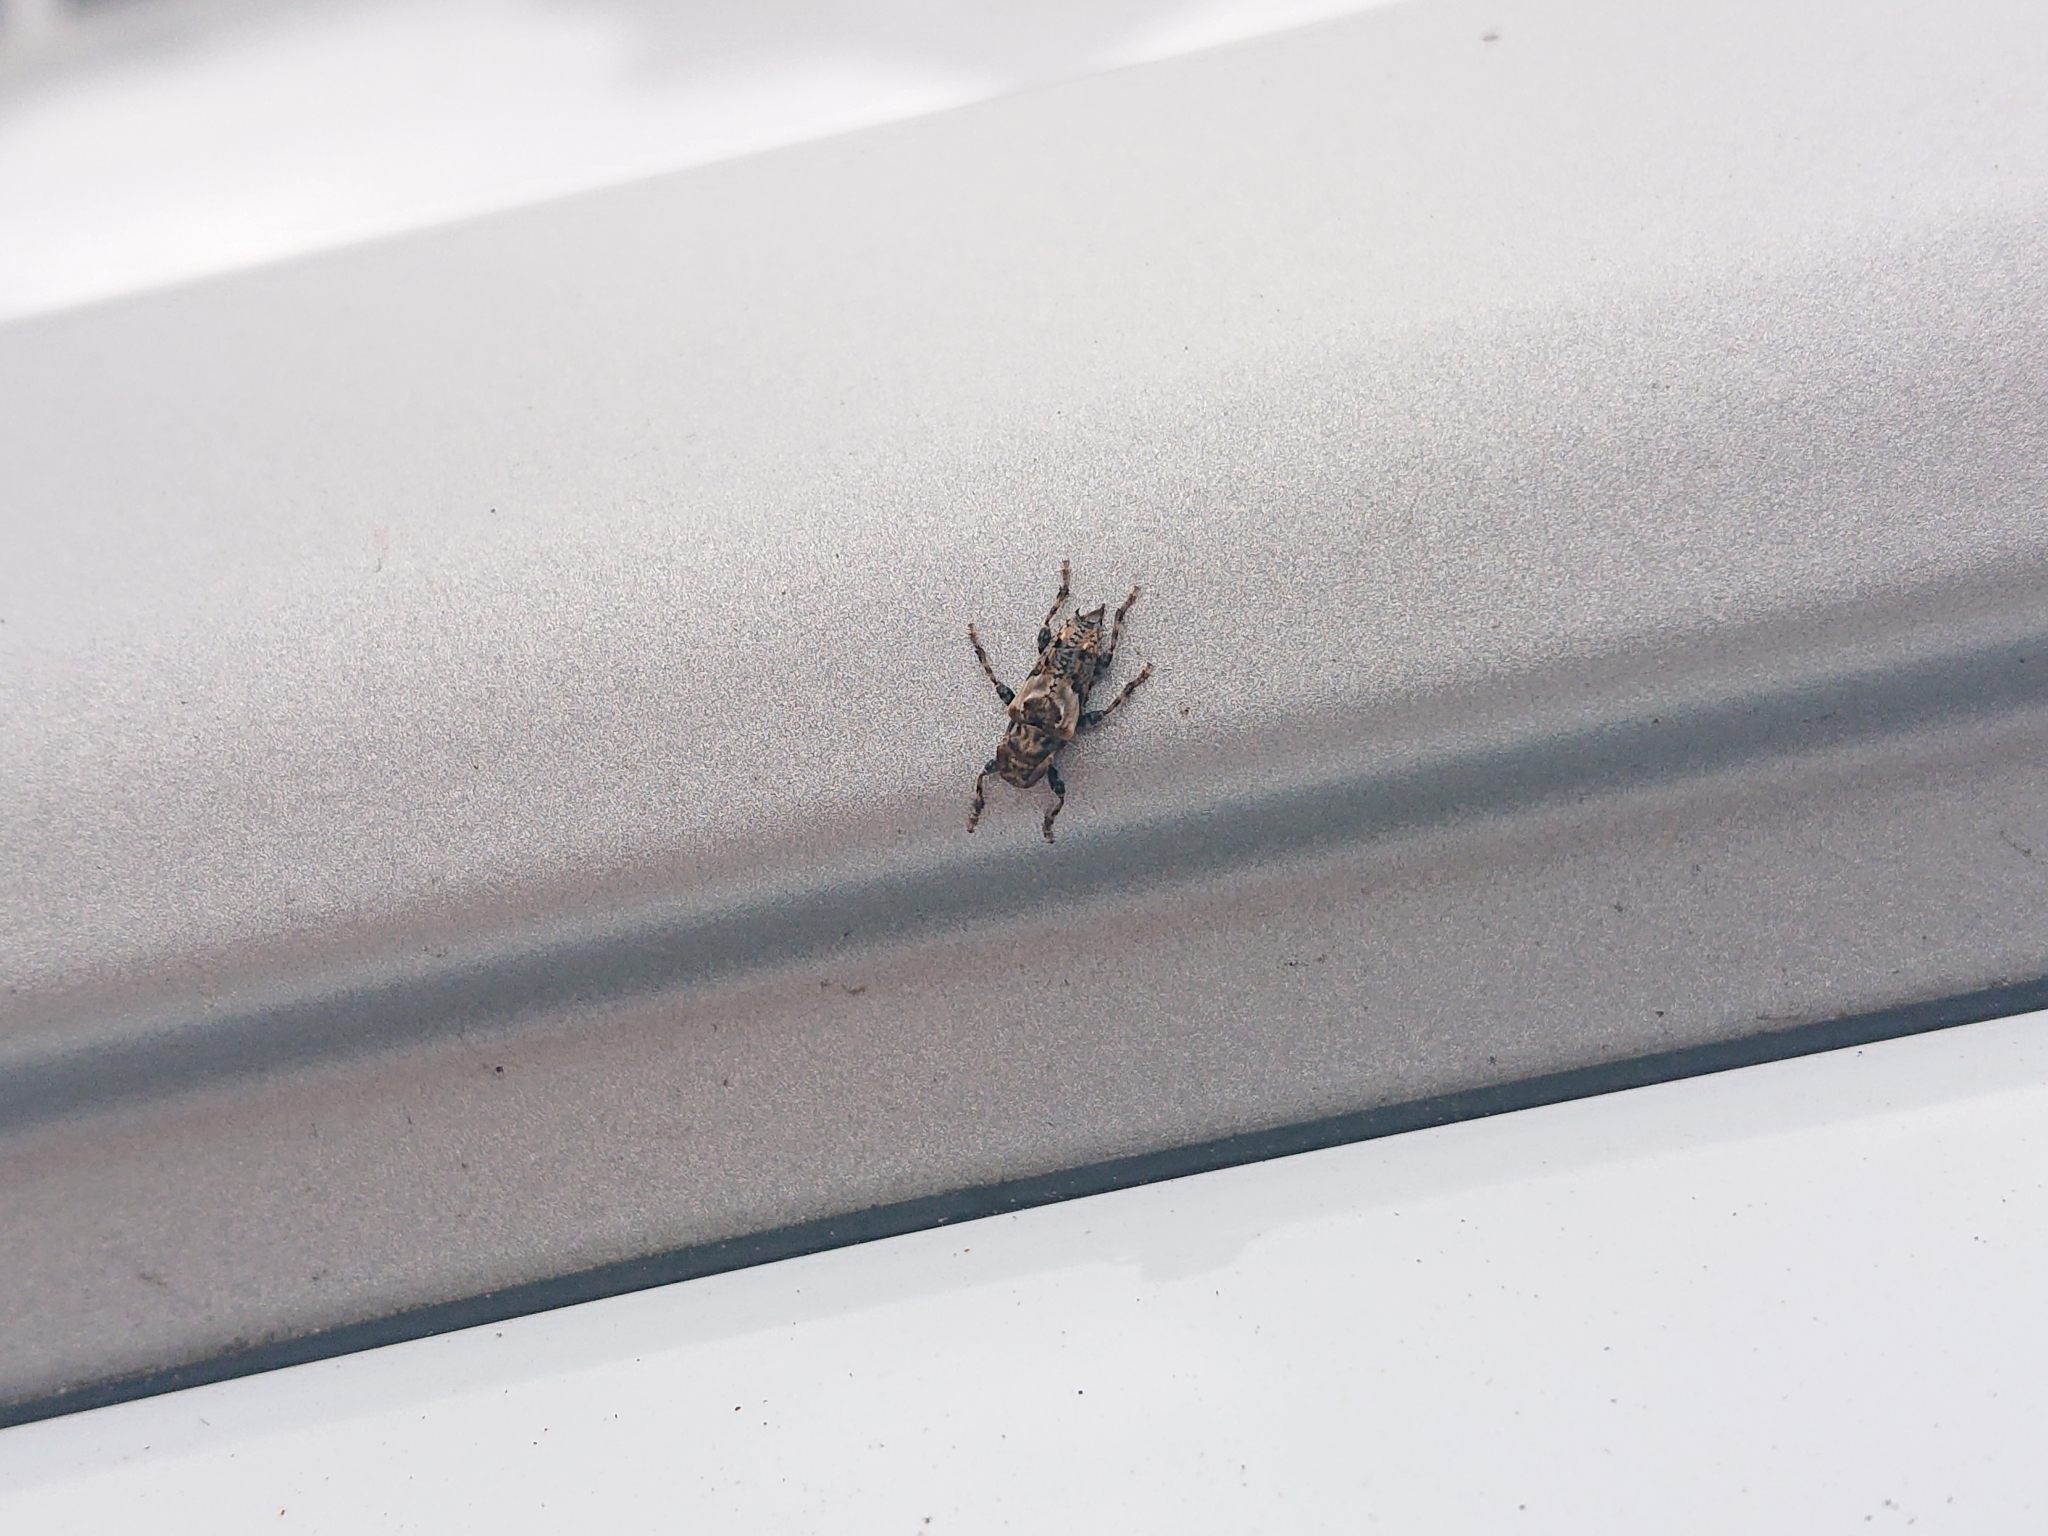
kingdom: Animalia
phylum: Arthropoda
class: Insecta
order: Coleoptera
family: Cerambycidae
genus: Pogonocherus
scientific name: Pogonocherus hispidus
